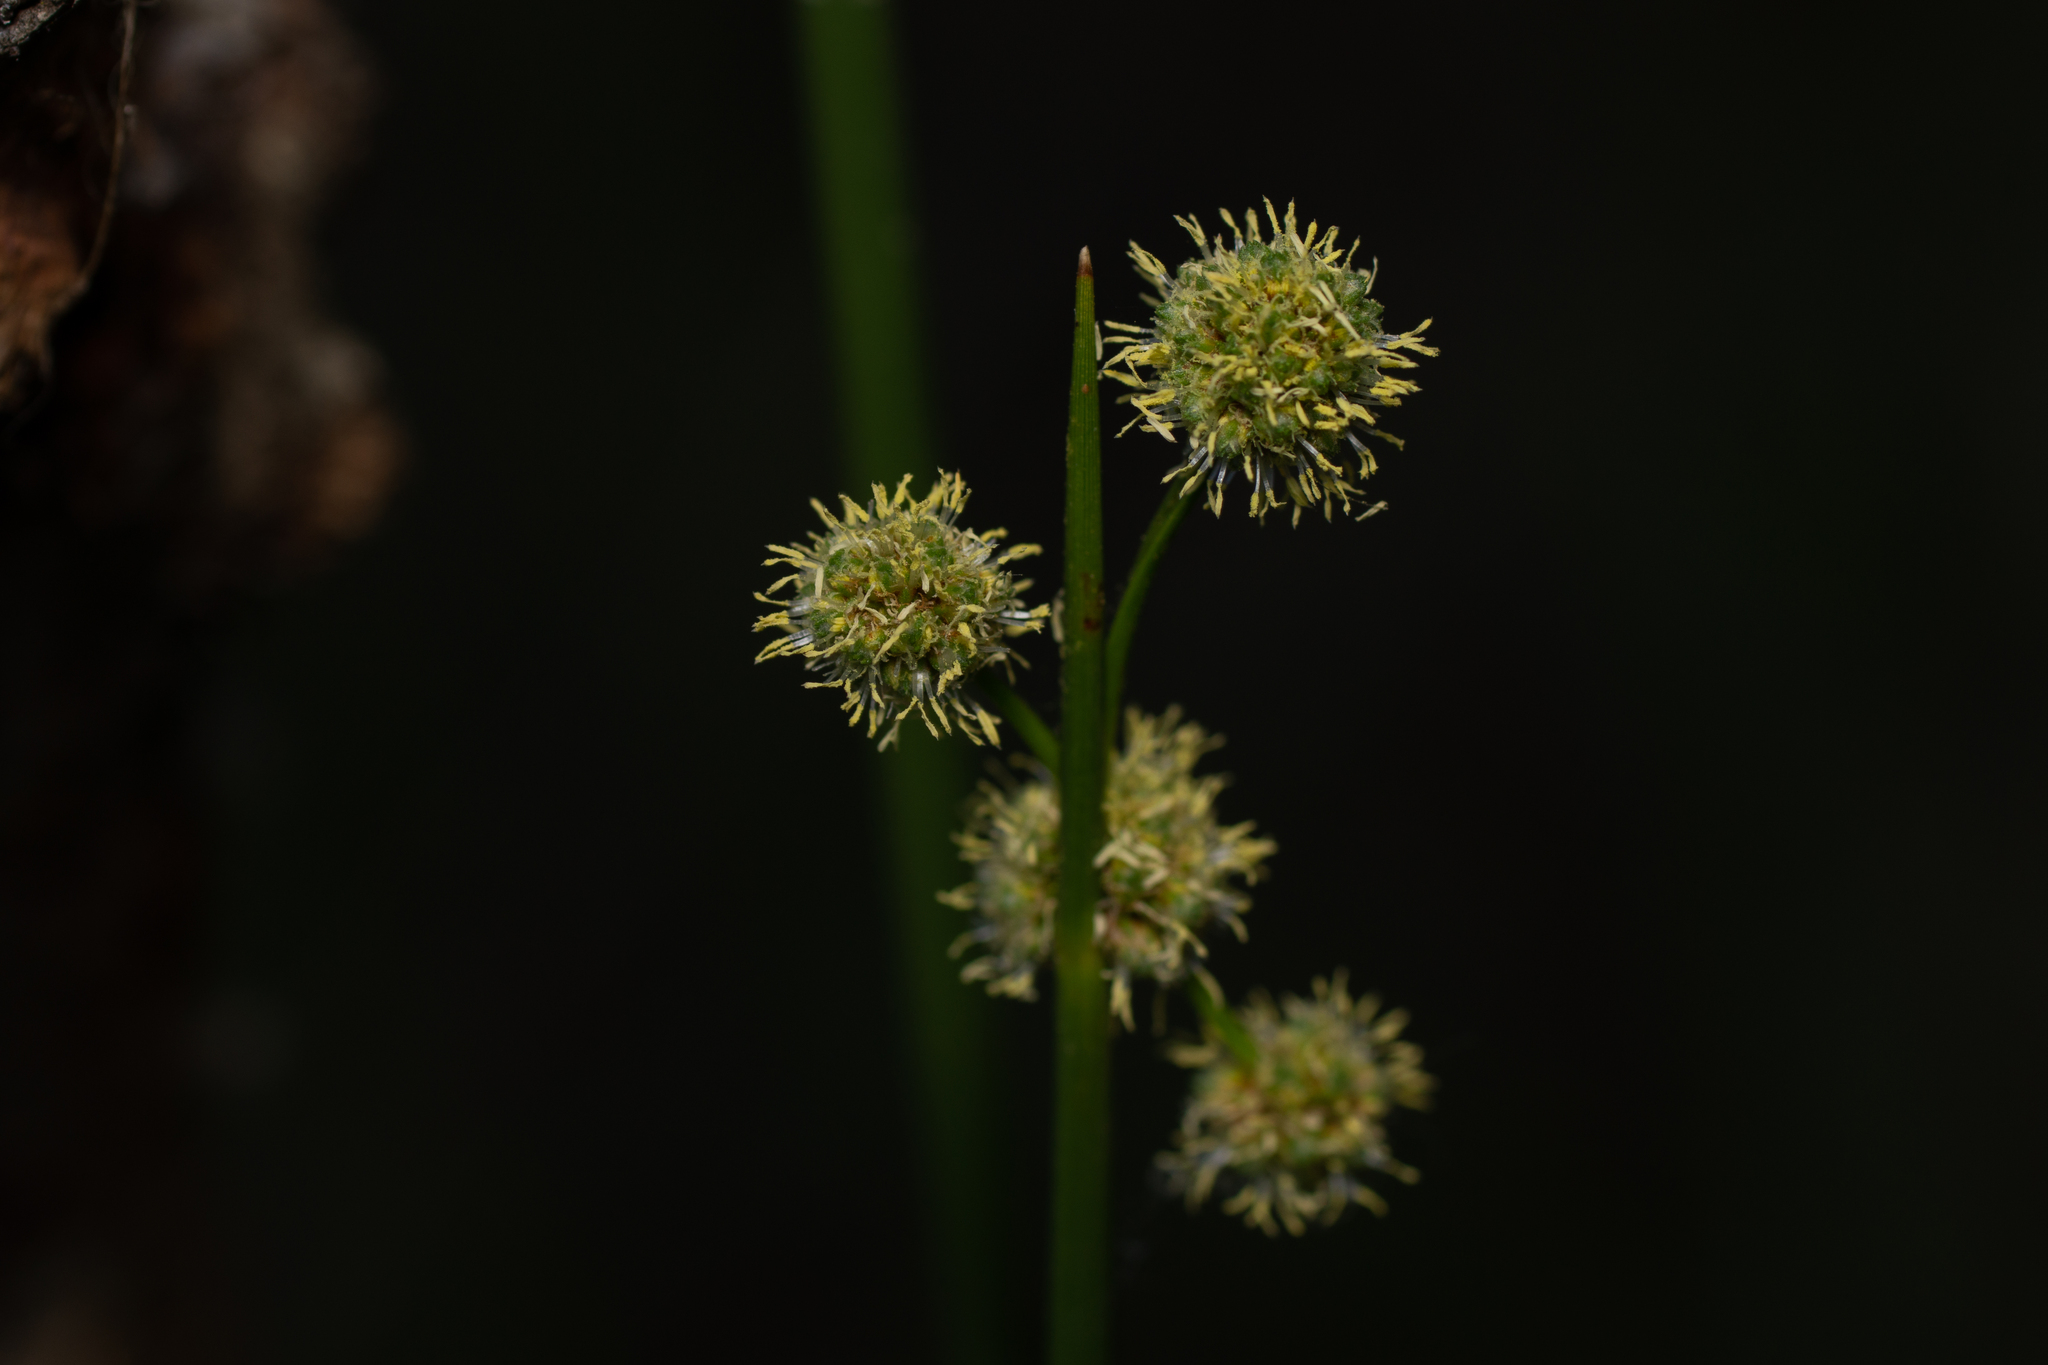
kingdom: Plantae
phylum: Tracheophyta
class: Liliopsida
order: Poales
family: Cyperaceae
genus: Scirpoides
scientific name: Scirpoides holoschoenus
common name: Round-headed club-rush
